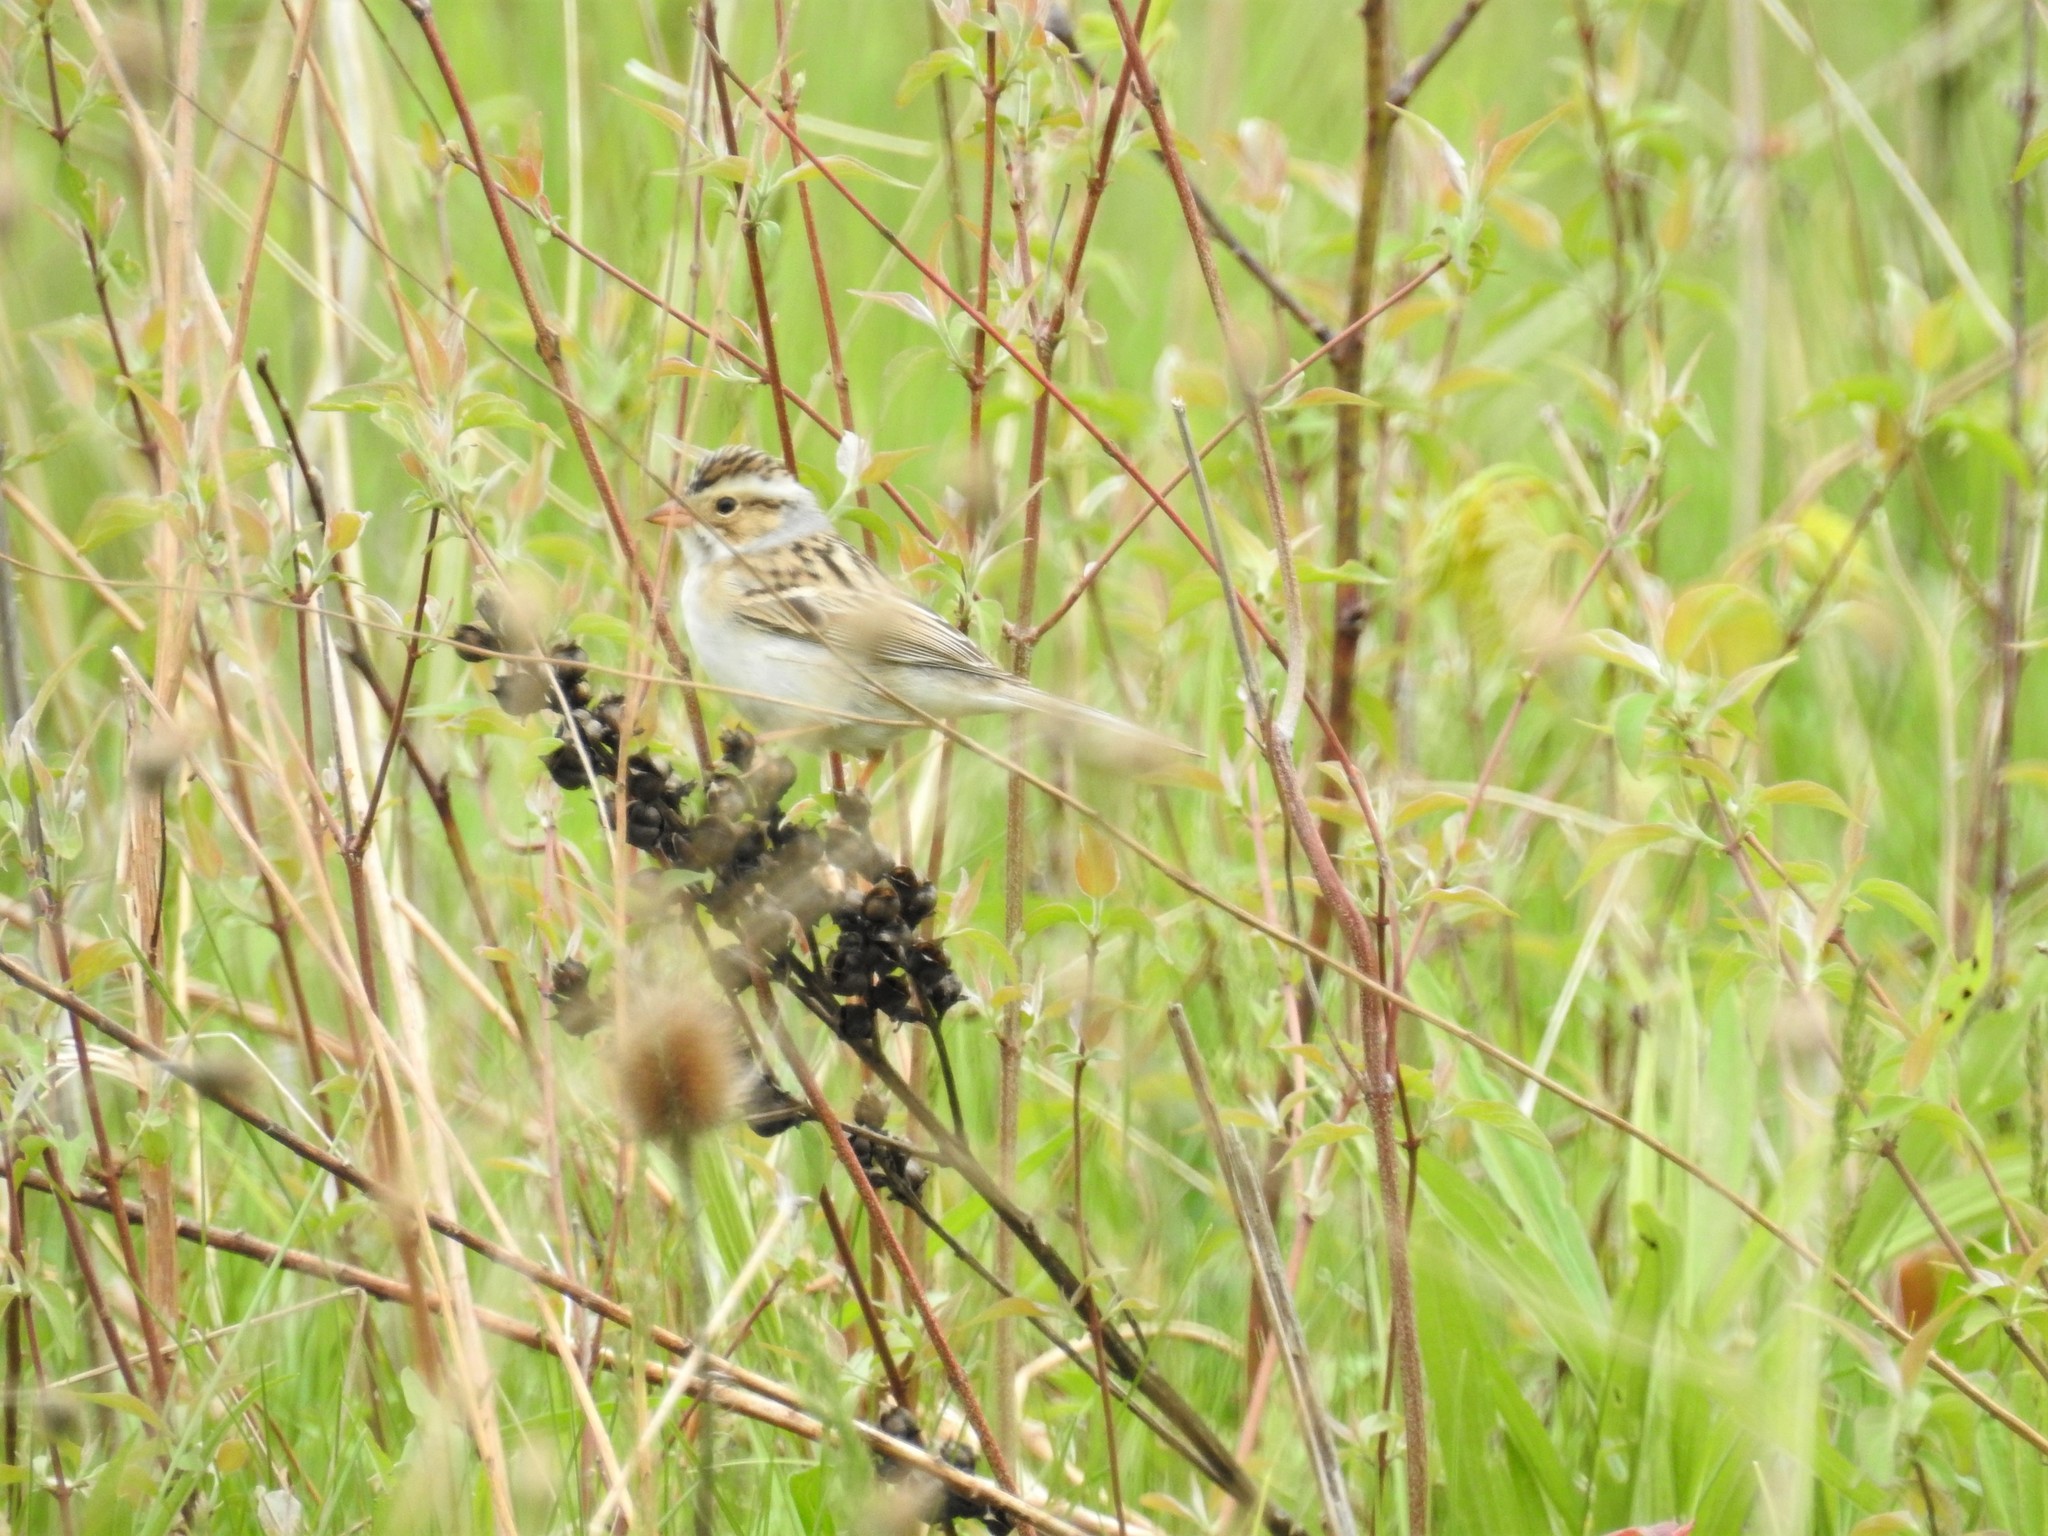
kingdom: Animalia
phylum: Chordata
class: Aves
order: Passeriformes
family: Passerellidae
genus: Spizella
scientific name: Spizella pallida
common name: Clay-colored sparrow
